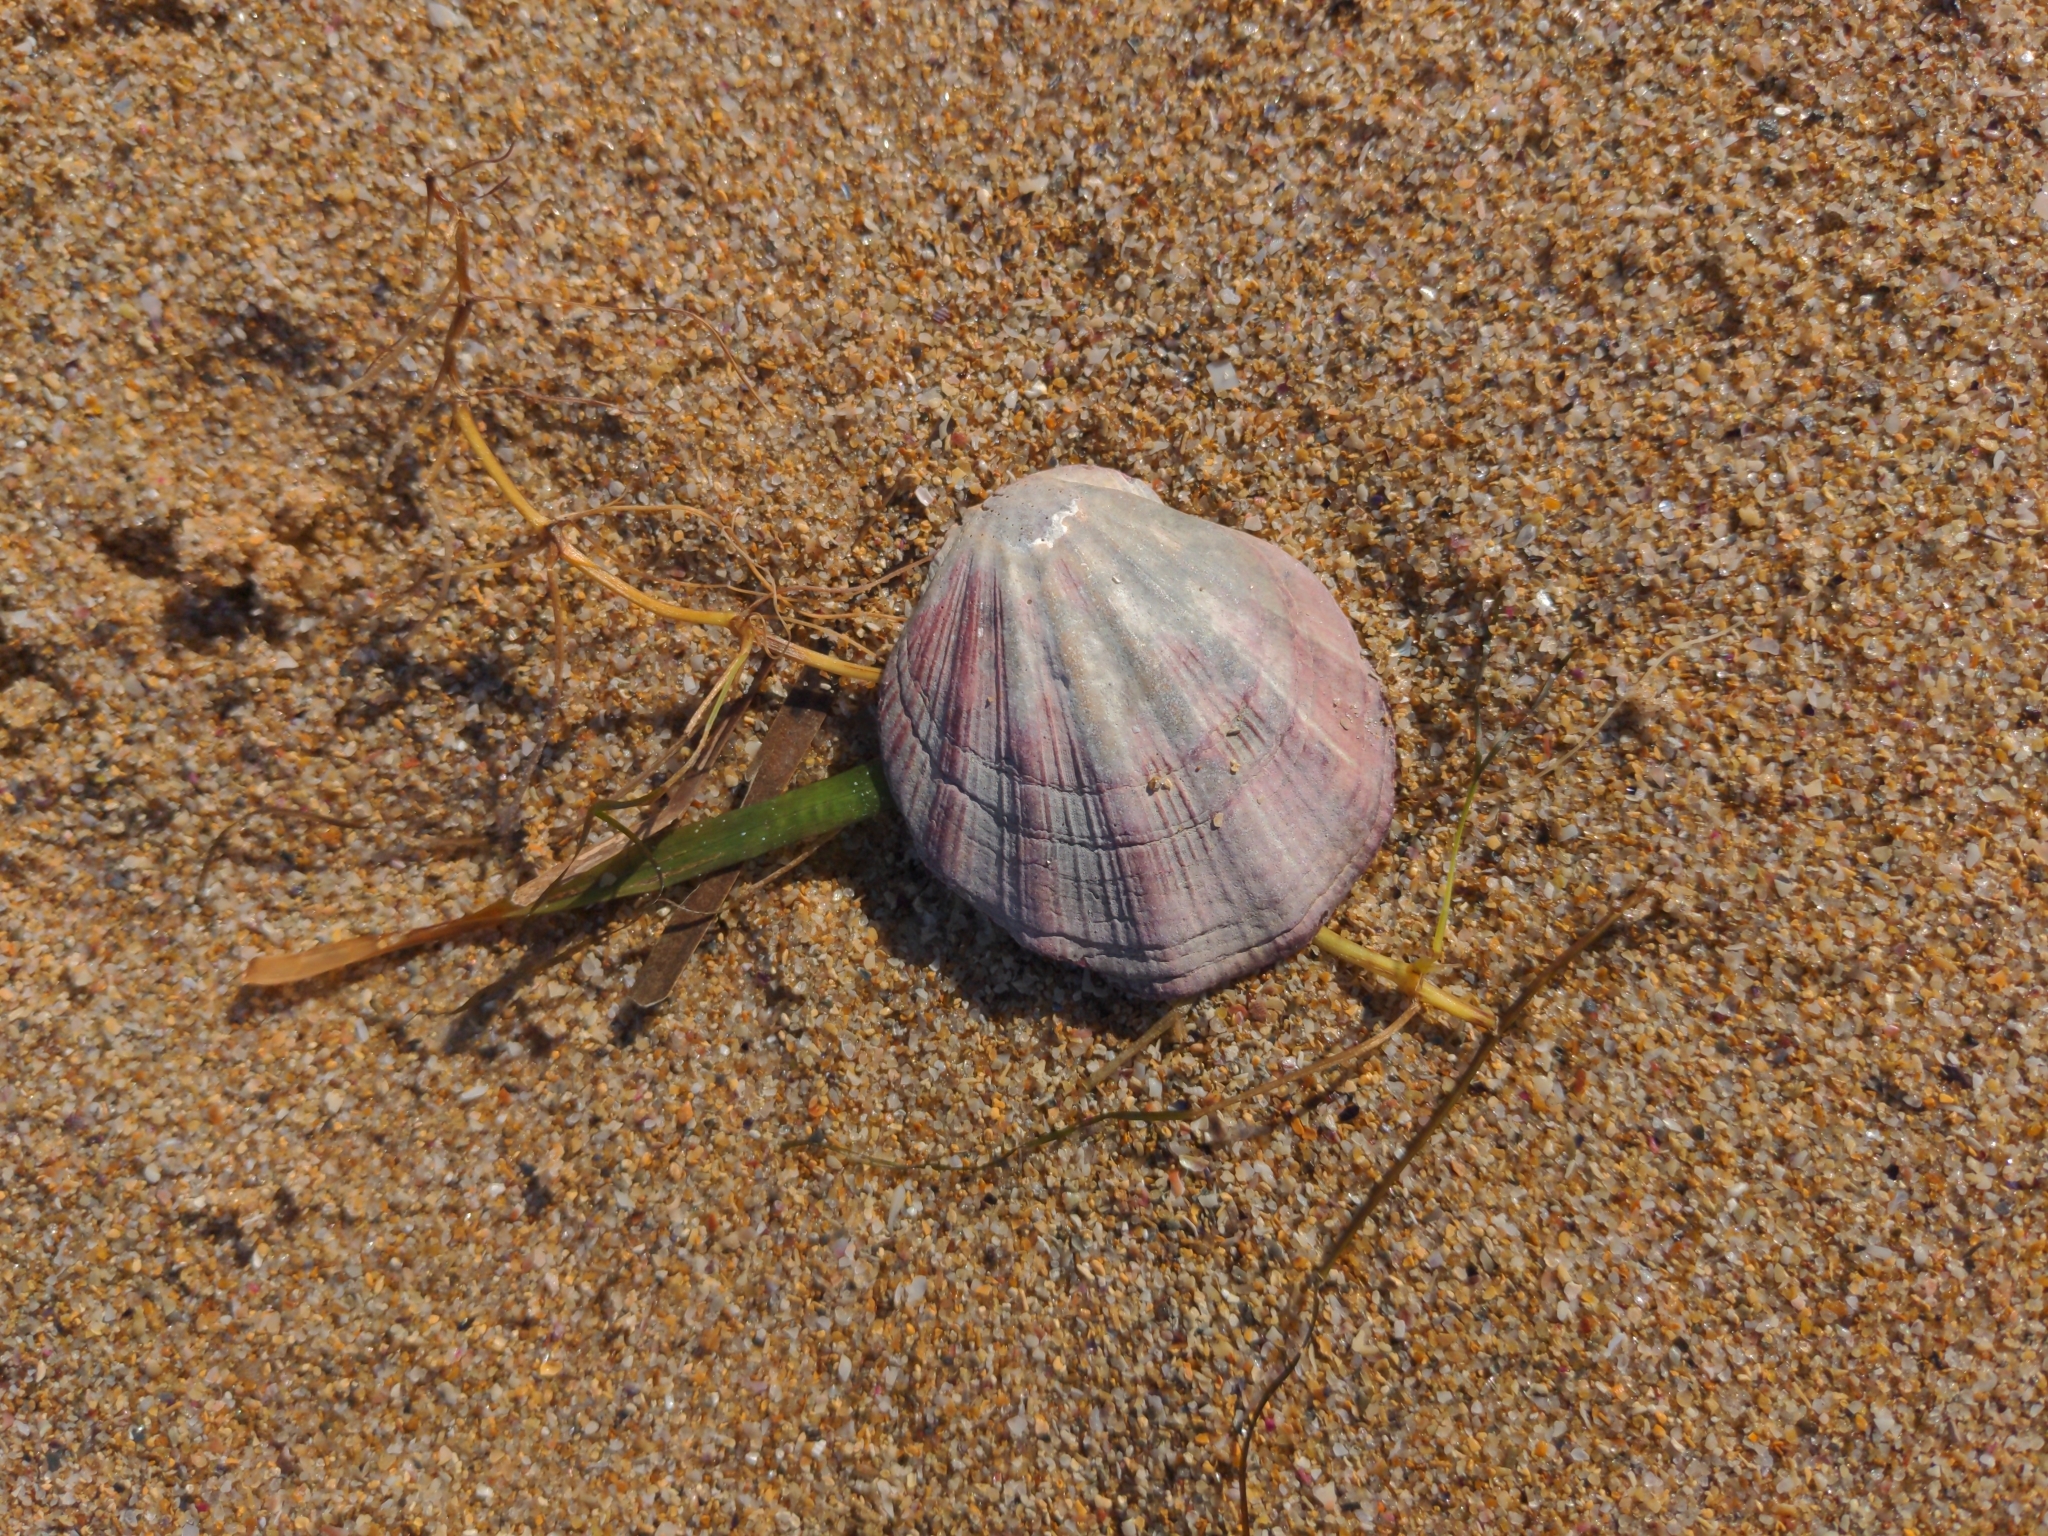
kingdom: Animalia
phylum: Mollusca
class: Bivalvia
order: Pectinida
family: Pectinidae
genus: Equichlamys
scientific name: Equichlamys bifrons
